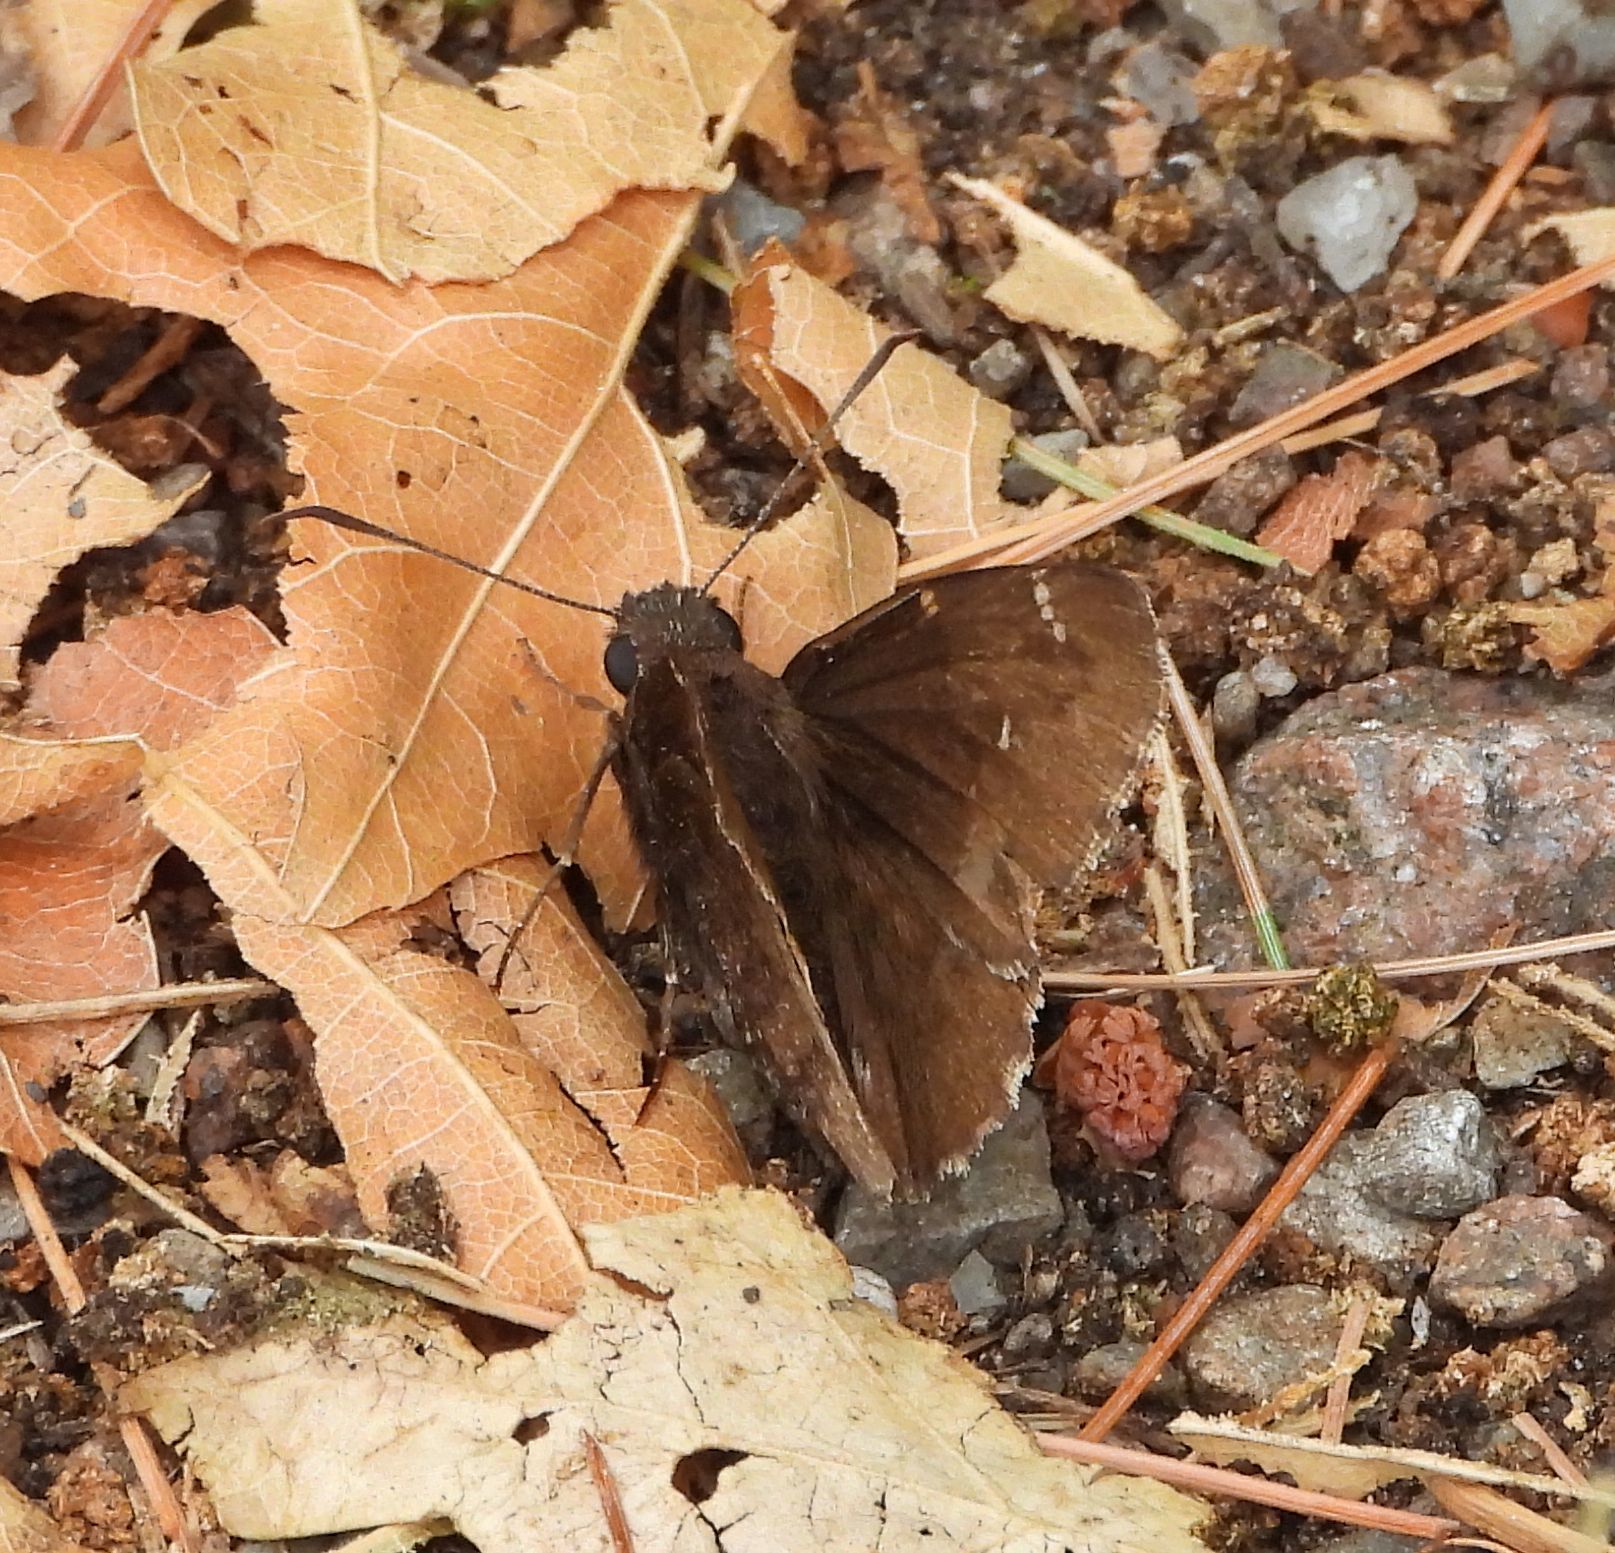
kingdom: Animalia
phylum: Arthropoda
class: Insecta
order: Lepidoptera
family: Hesperiidae
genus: Thorybes
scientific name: Thorybes pylades
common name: Northern cloudywing
